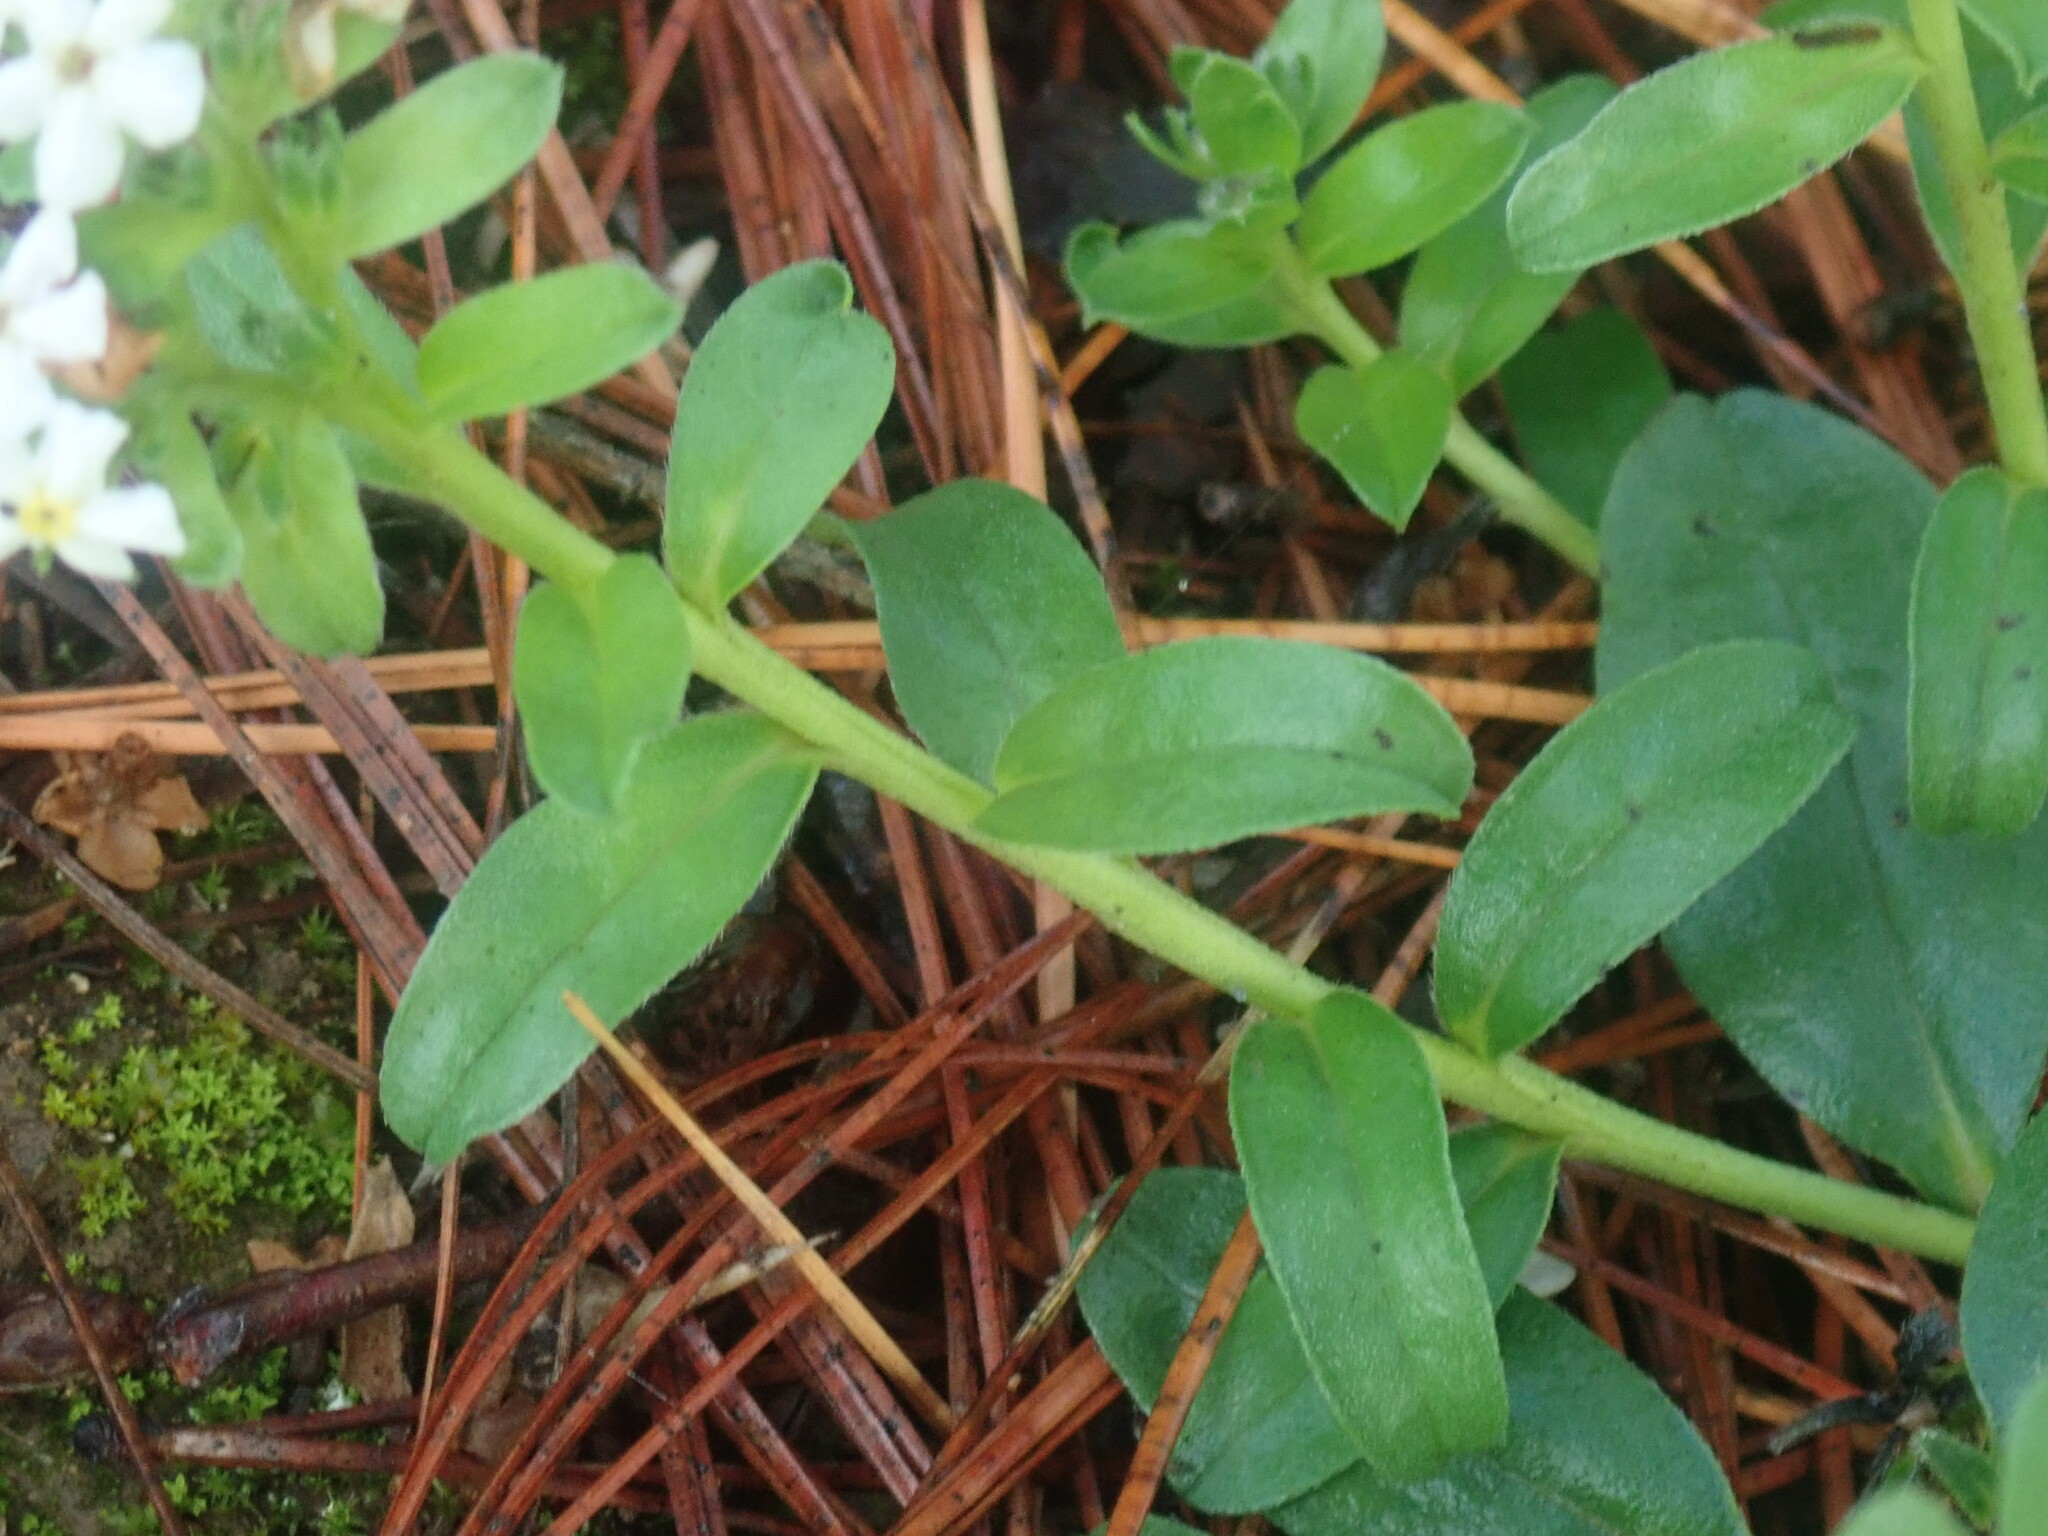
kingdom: Plantae
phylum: Tracheophyta
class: Magnoliopsida
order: Boraginales
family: Boraginaceae
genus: Lithospermum
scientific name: Lithospermum distichum
